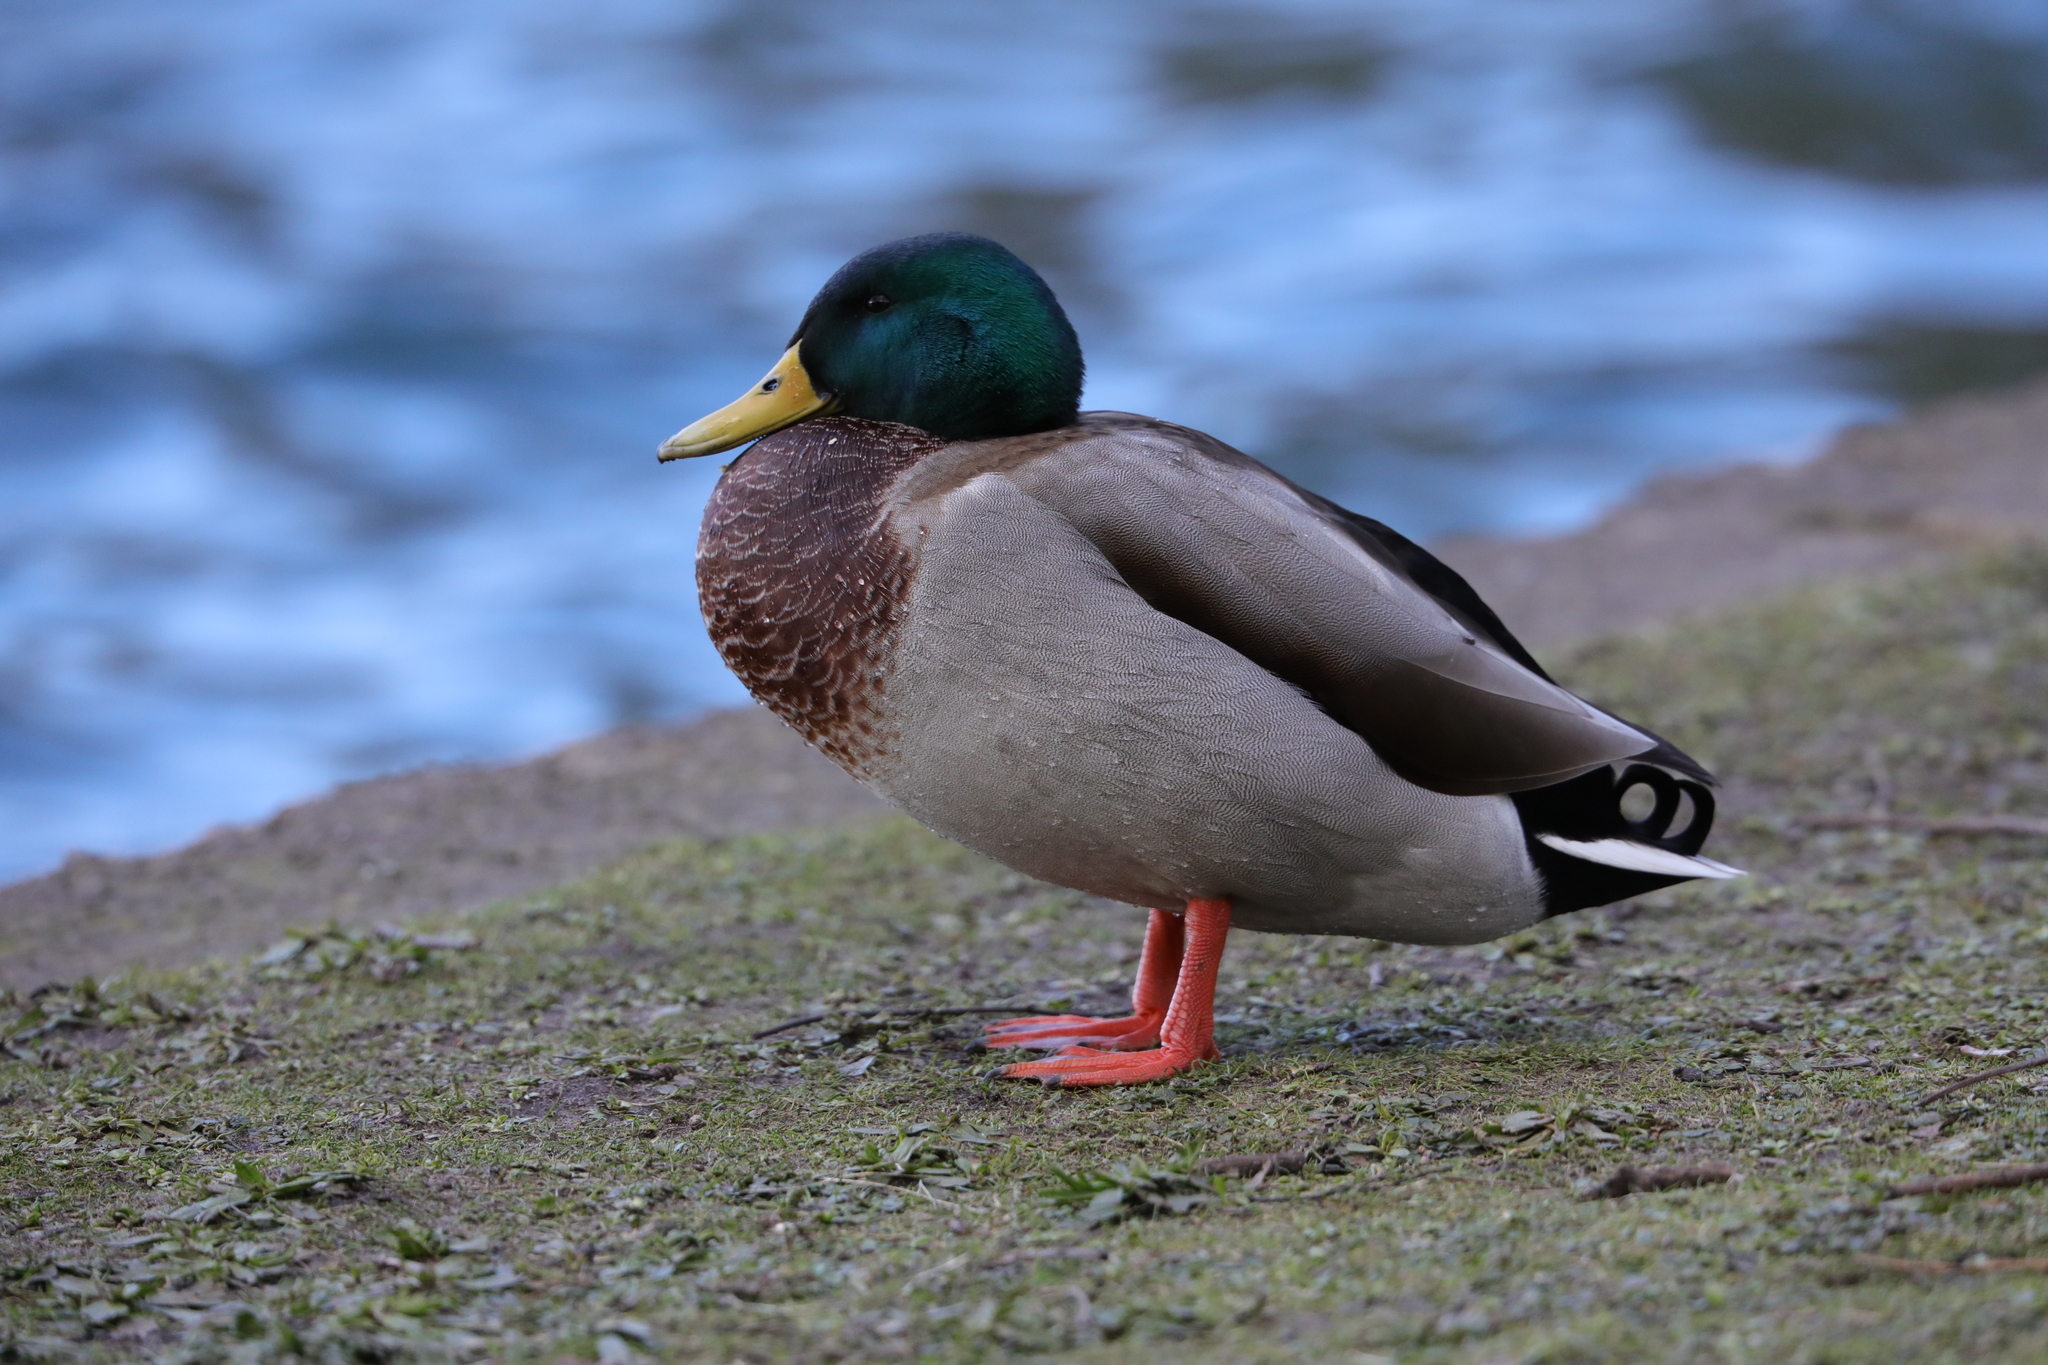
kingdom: Animalia
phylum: Chordata
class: Aves
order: Anseriformes
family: Anatidae
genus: Anas
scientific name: Anas platyrhynchos
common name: Mallard
